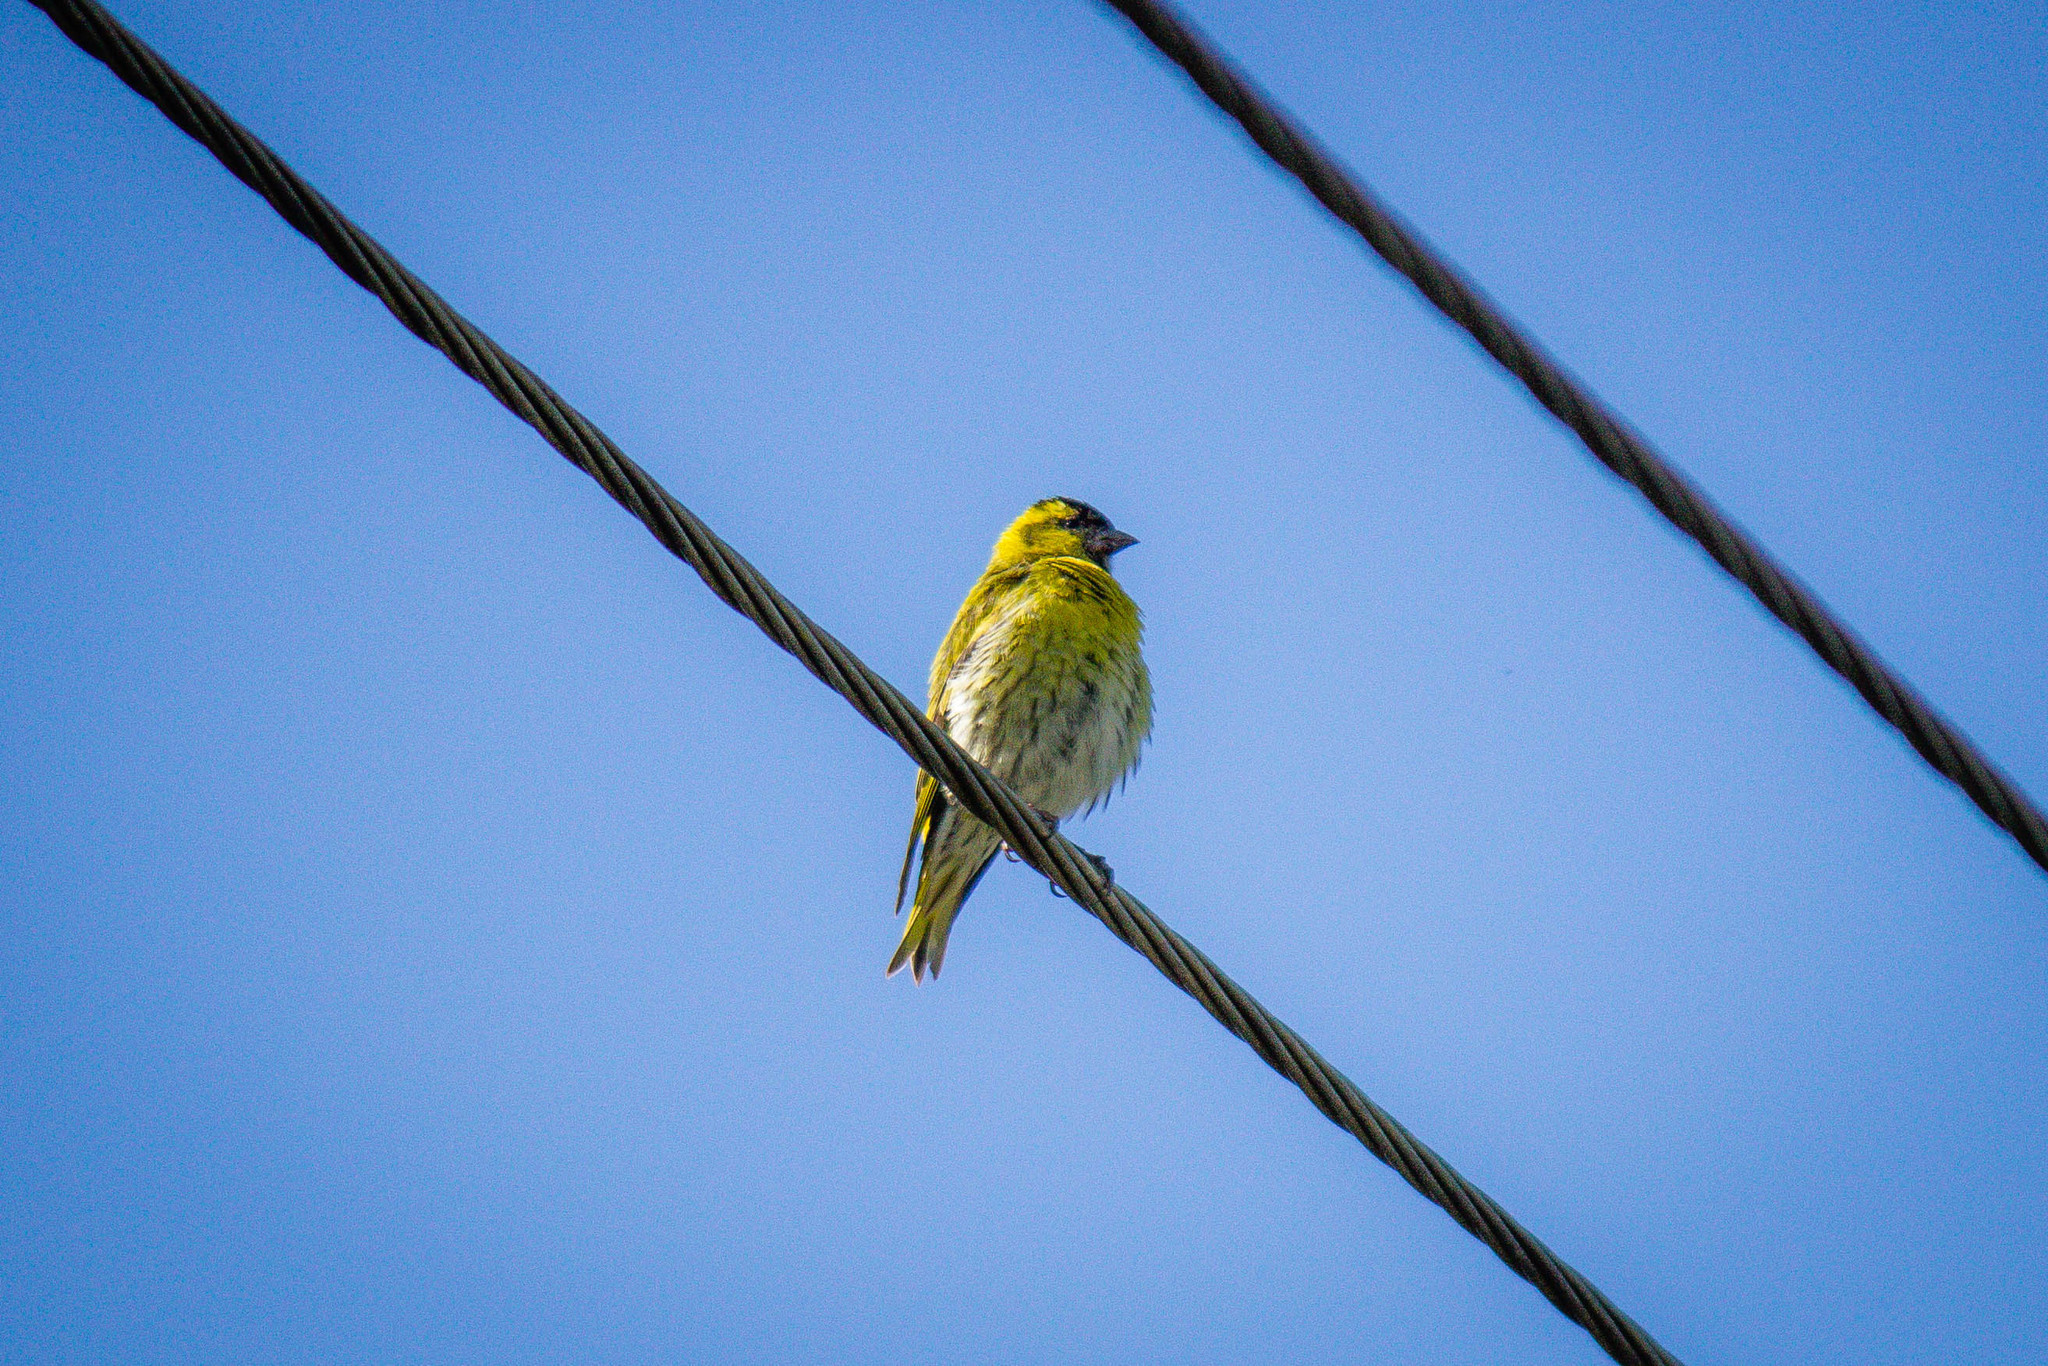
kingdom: Animalia
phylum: Chordata
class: Aves
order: Passeriformes
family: Fringillidae
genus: Spinus
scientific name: Spinus spinus
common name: Eurasian siskin
